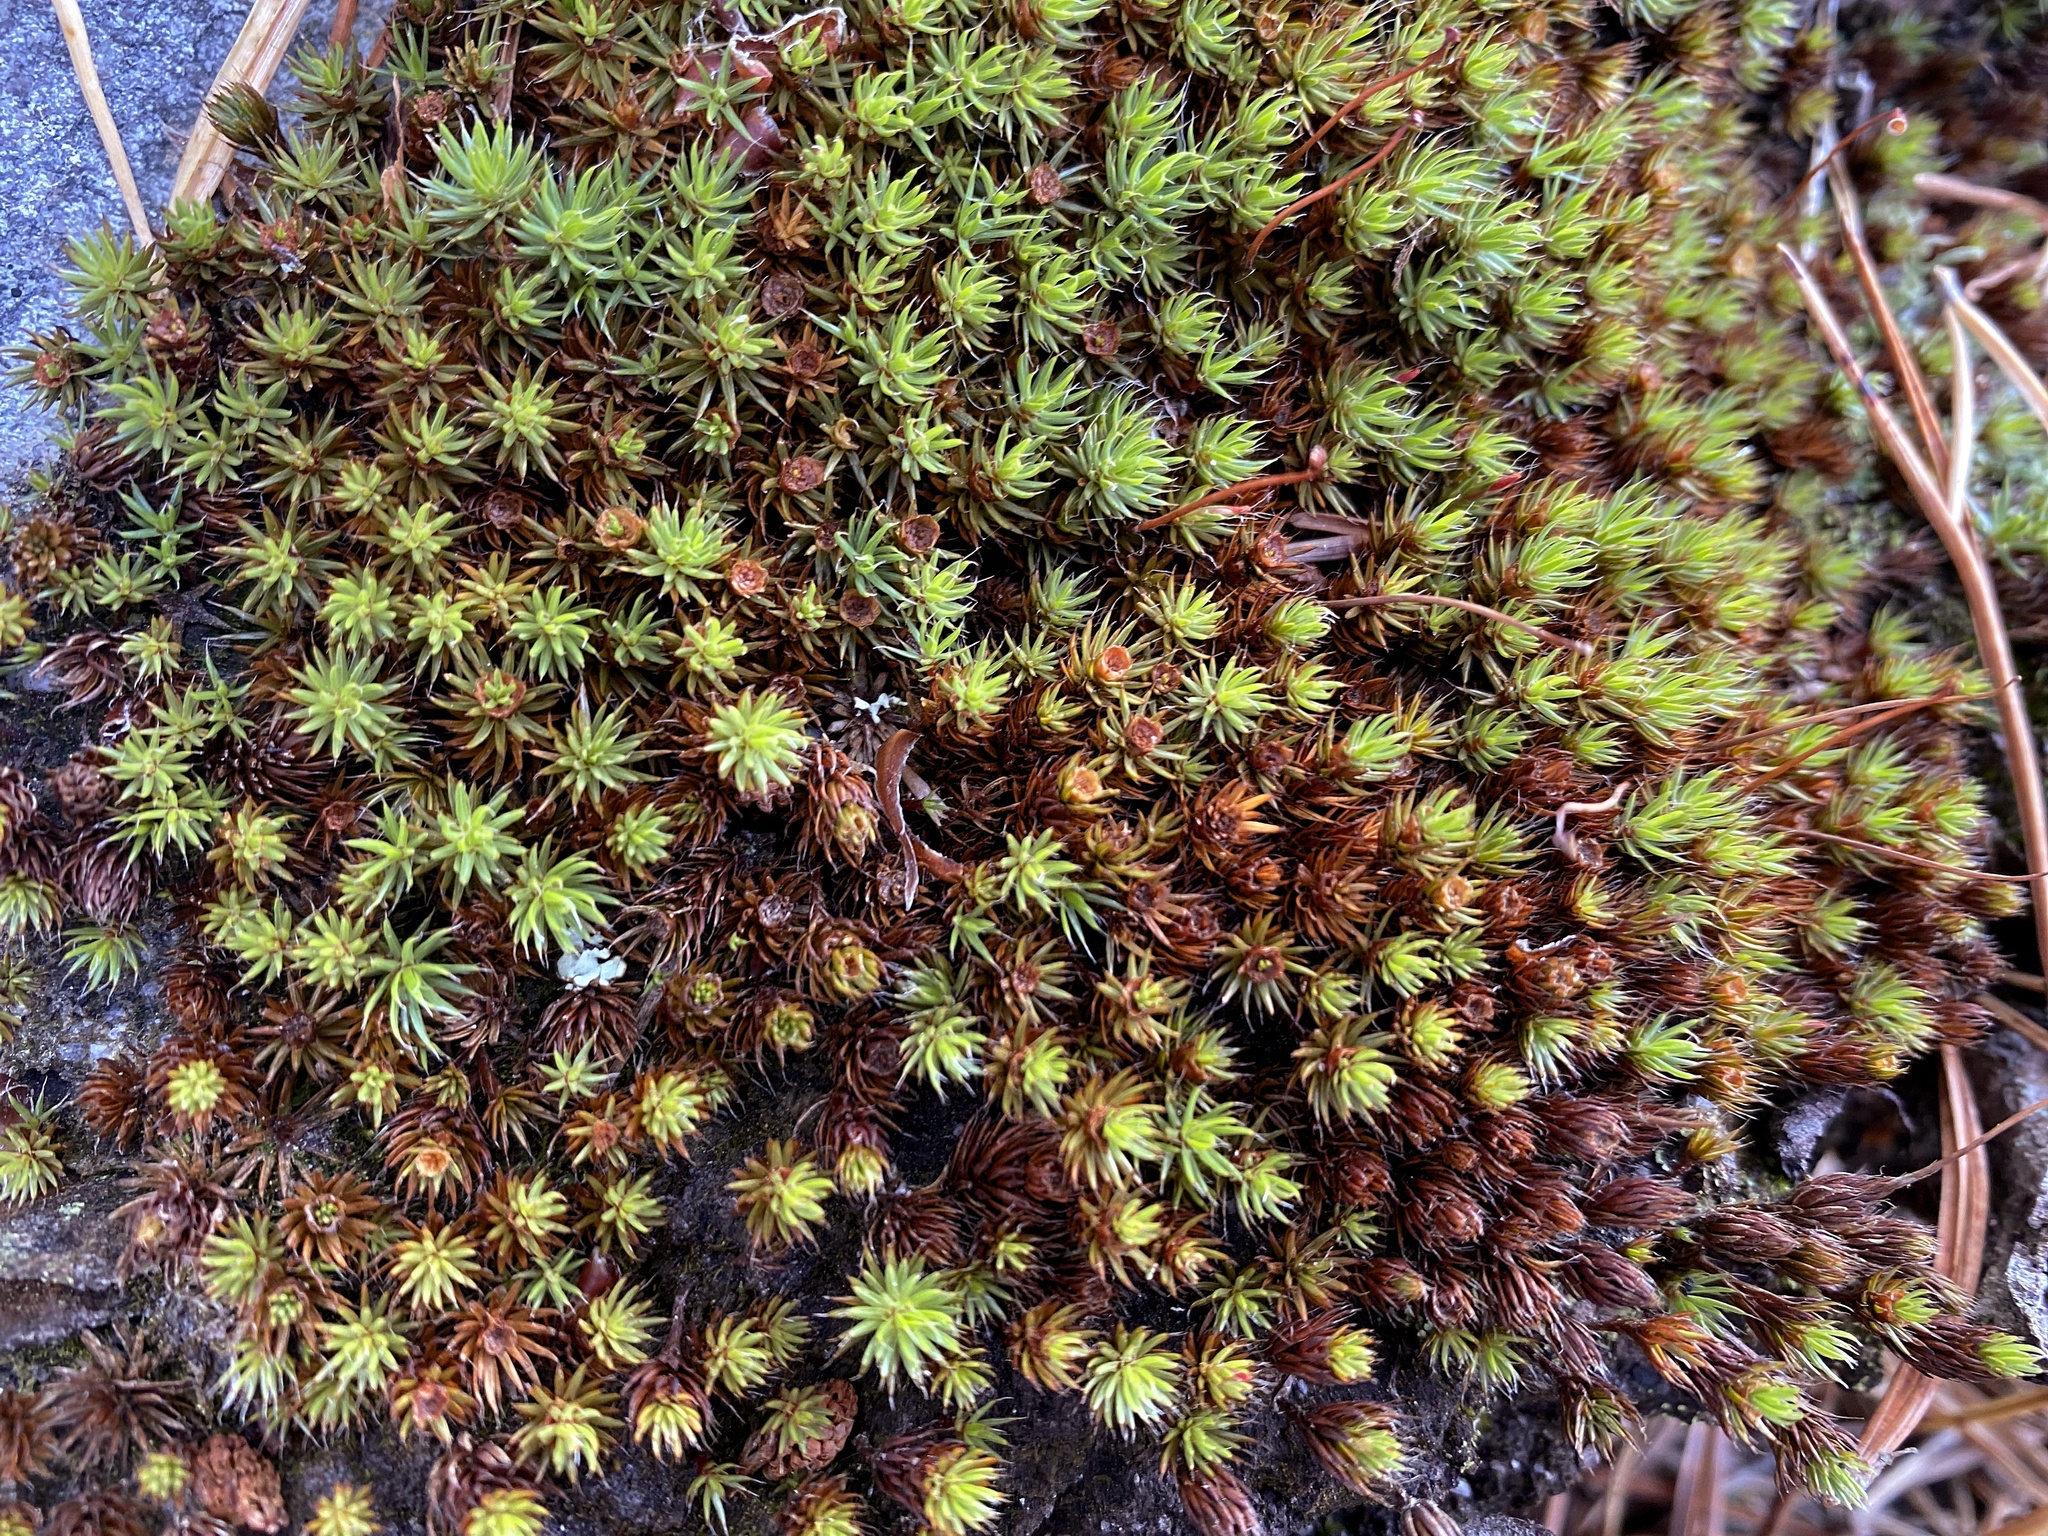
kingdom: Plantae
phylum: Bryophyta
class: Polytrichopsida
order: Polytrichales
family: Polytrichaceae
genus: Polytrichum
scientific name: Polytrichum piliferum
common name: Bristly haircap
